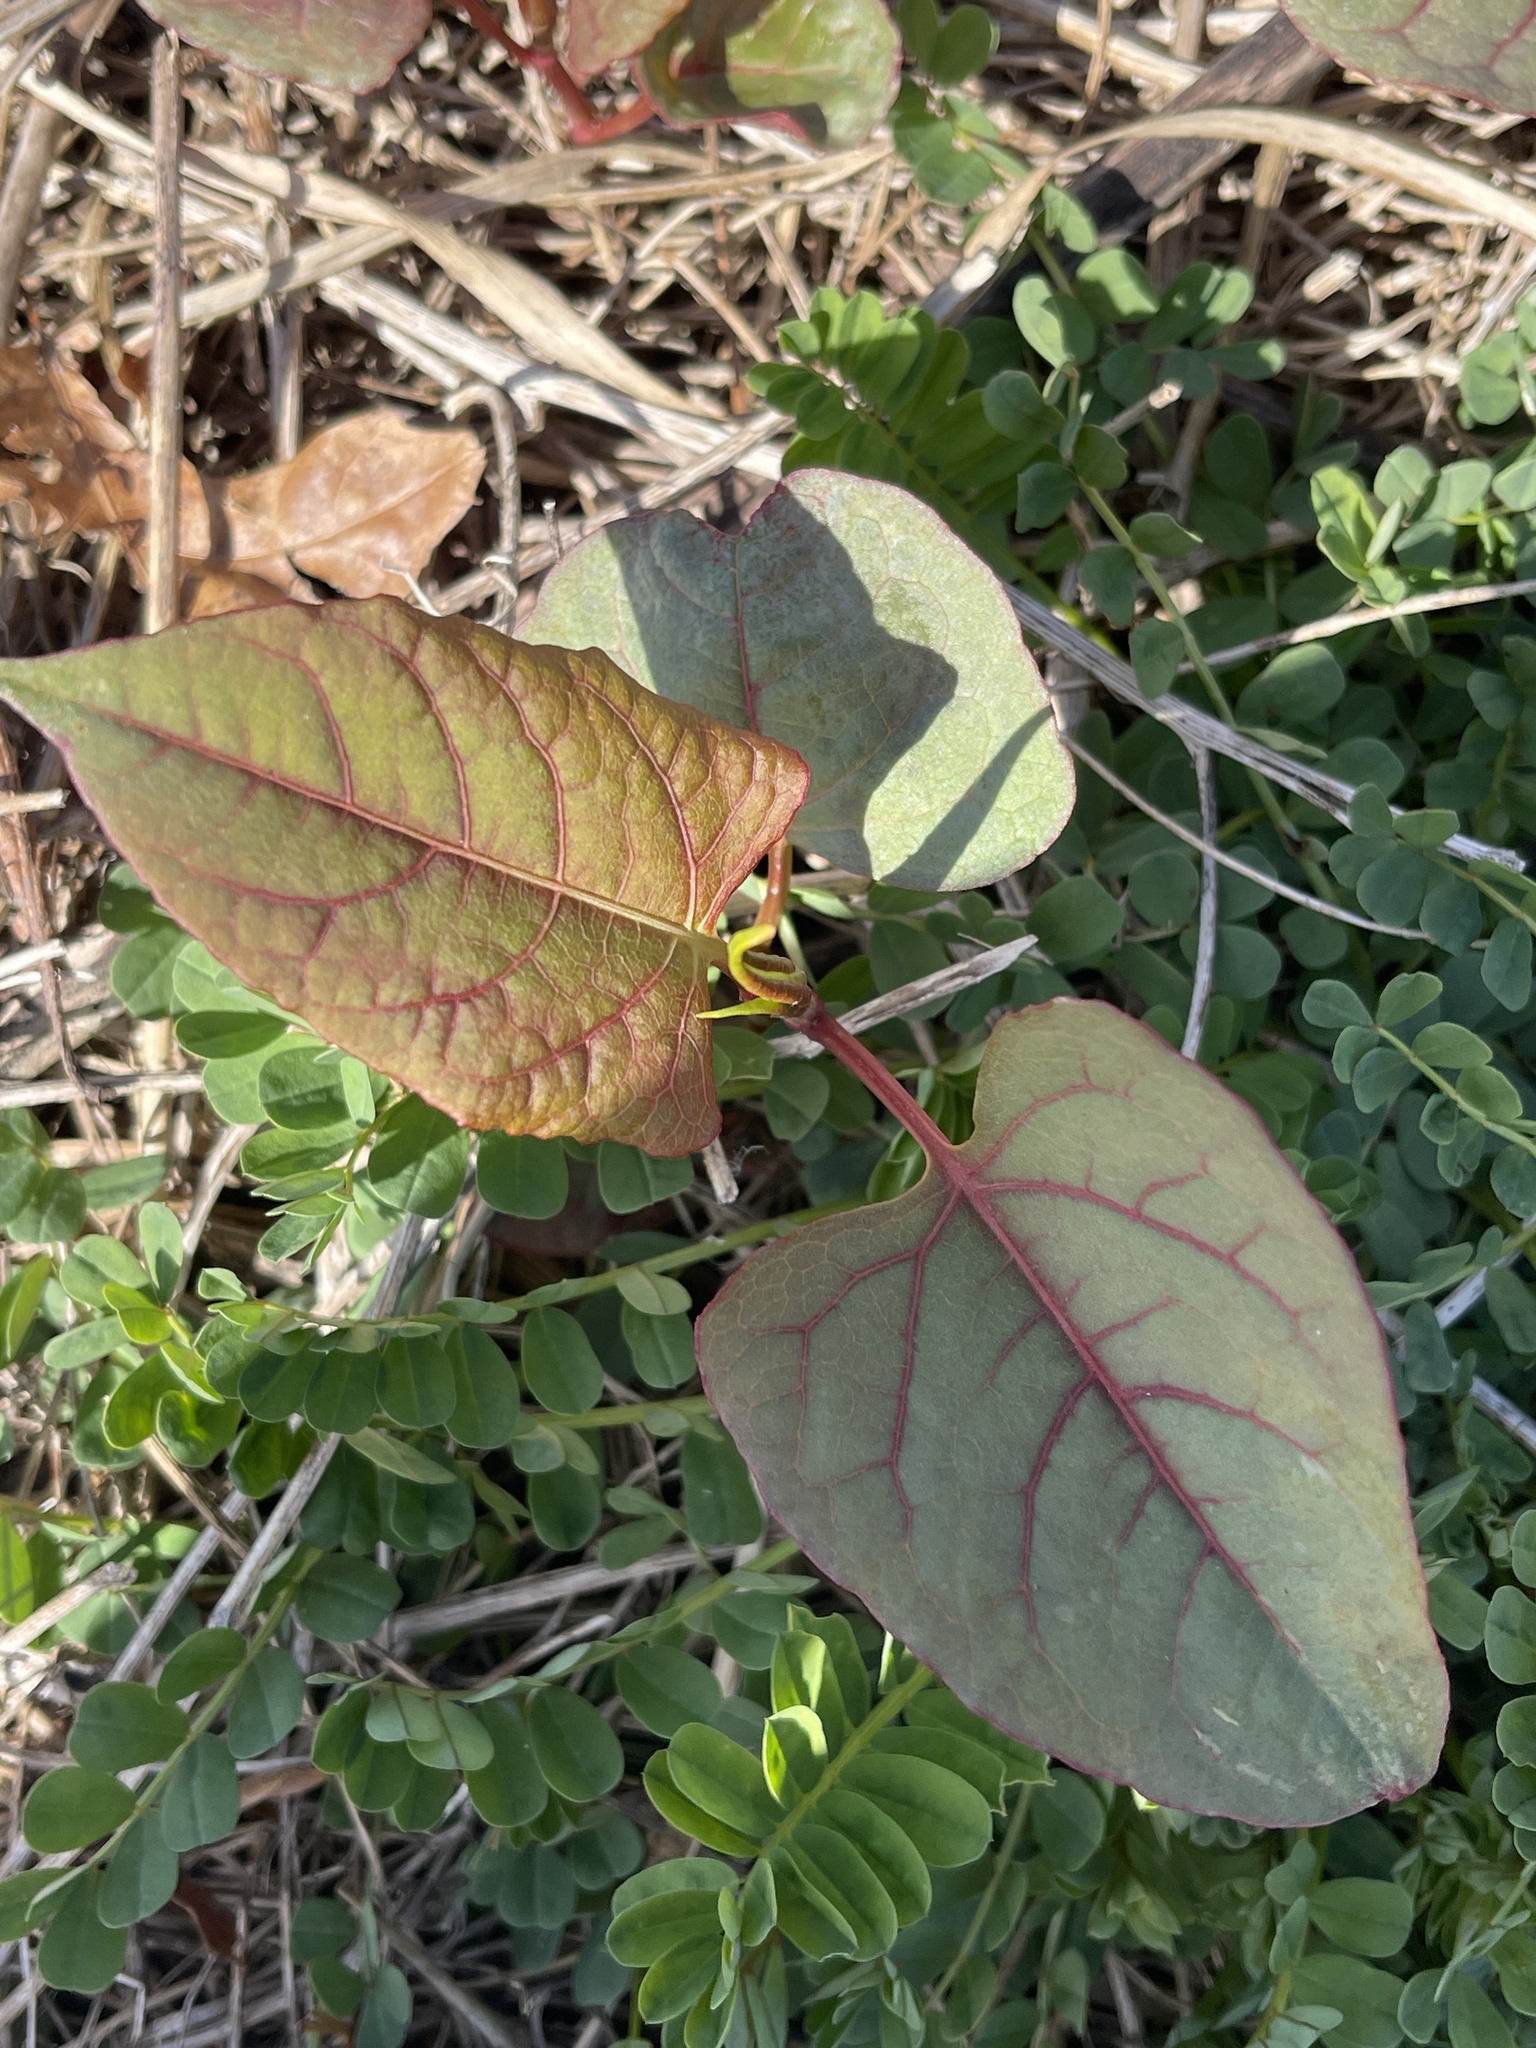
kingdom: Plantae
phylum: Tracheophyta
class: Magnoliopsida
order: Caryophyllales
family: Polygonaceae
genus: Reynoutria
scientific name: Reynoutria japonica
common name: Japanese knotweed
